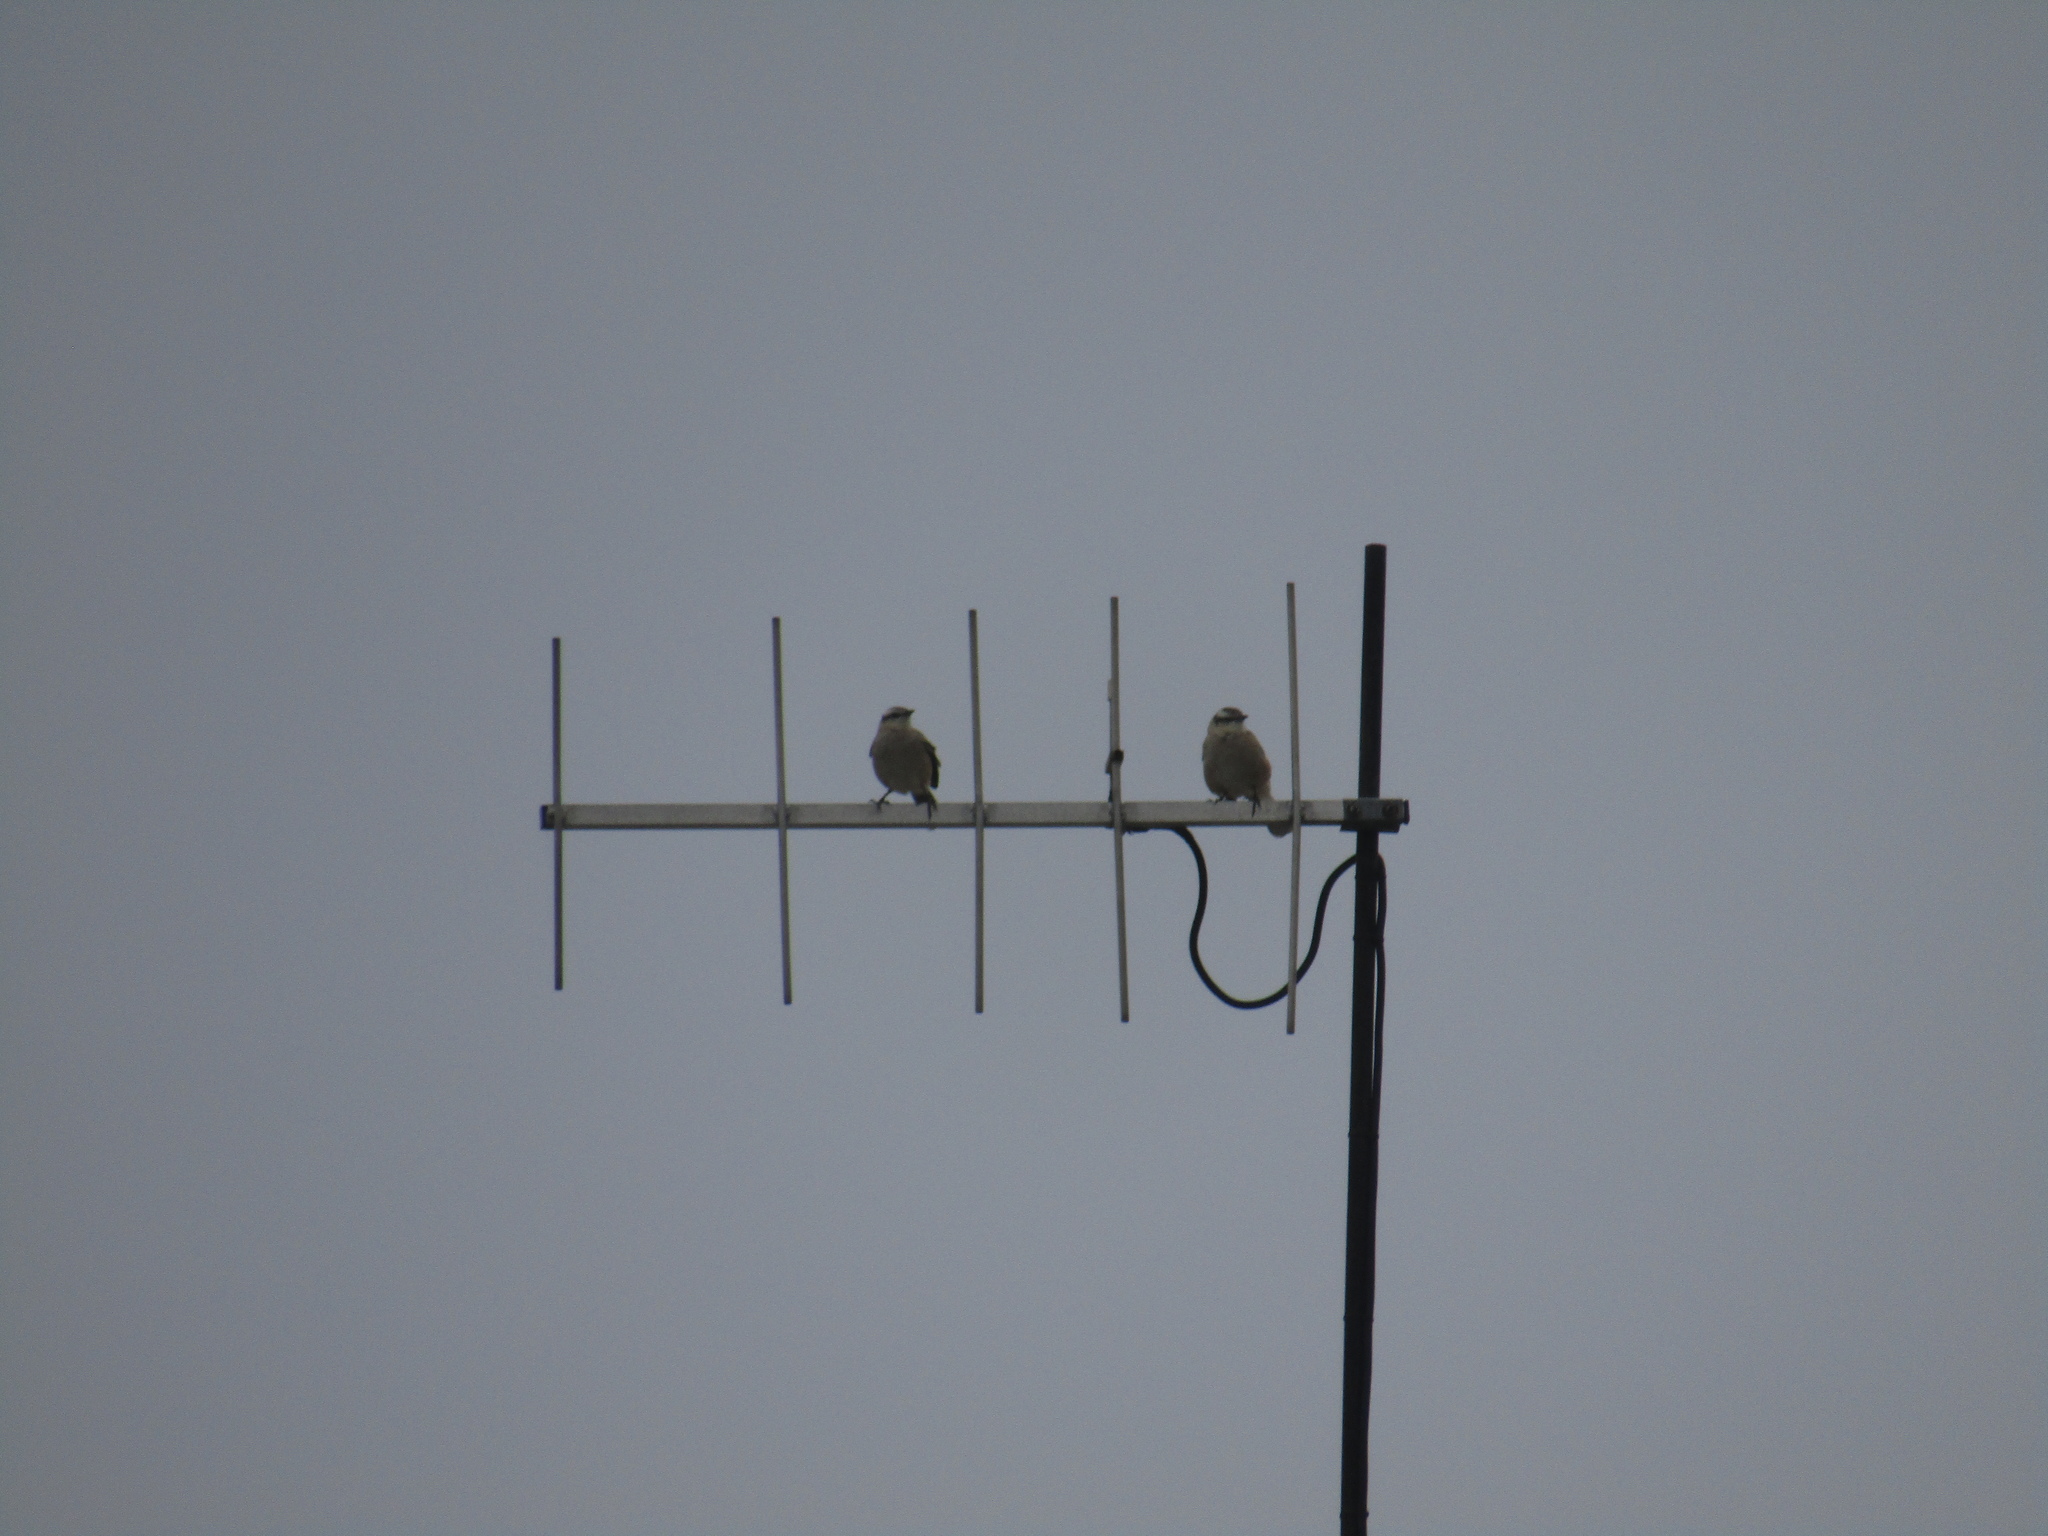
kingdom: Animalia
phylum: Chordata
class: Aves
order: Passeriformes
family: Mimidae
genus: Mimus
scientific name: Mimus saturninus
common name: Chalk-browed mockingbird
